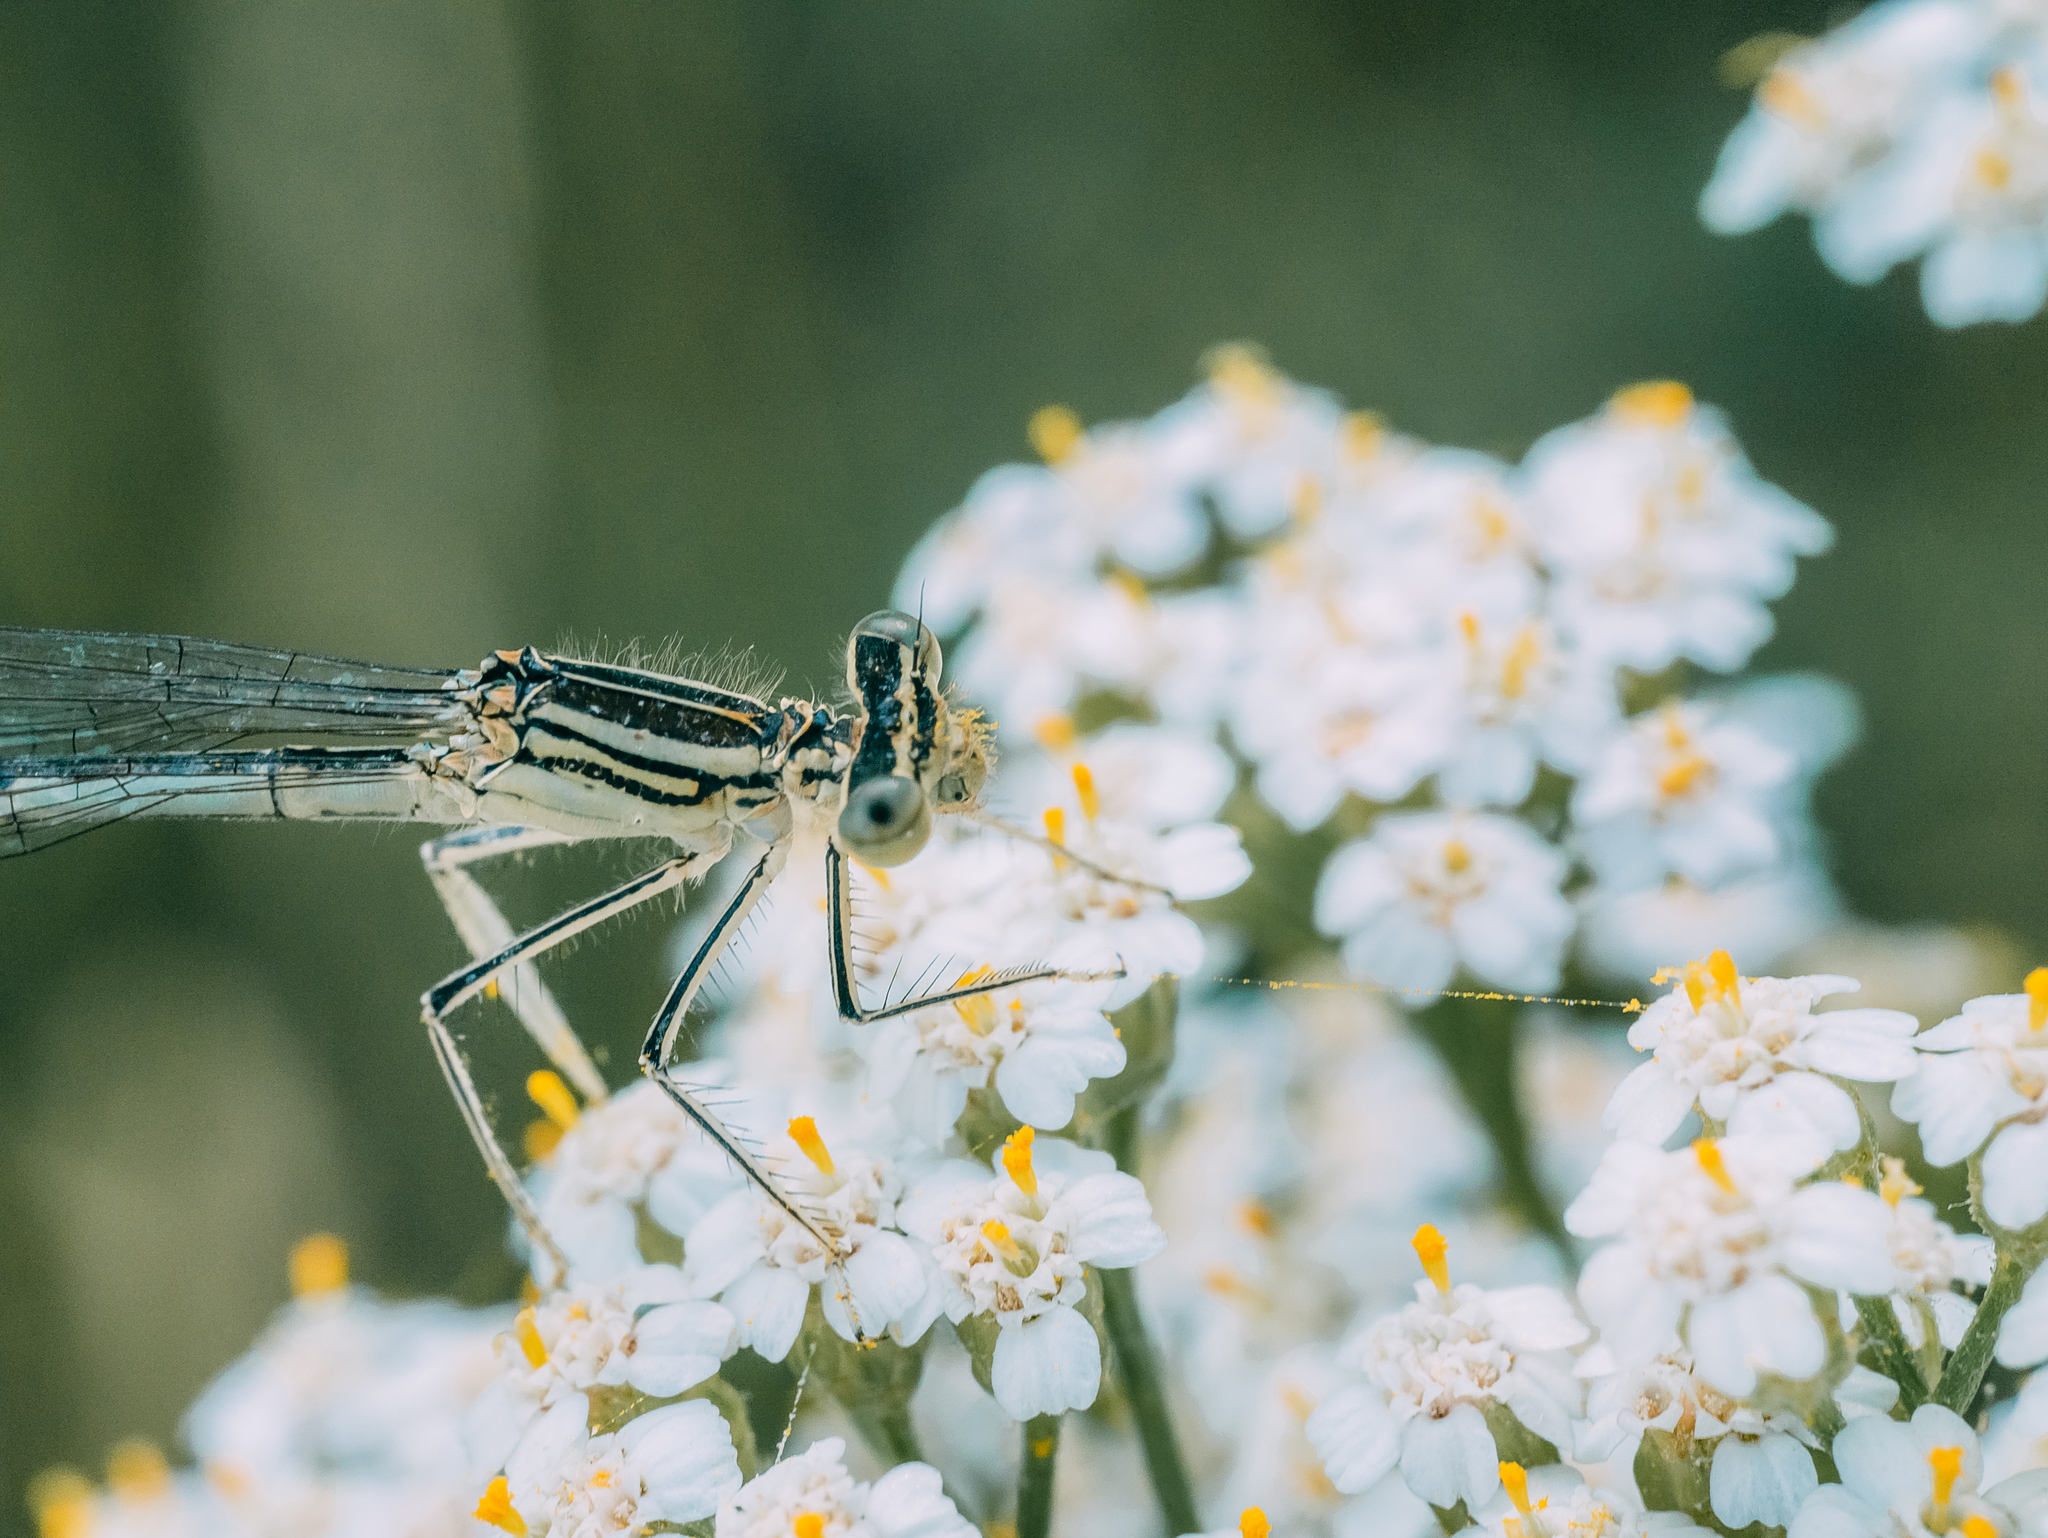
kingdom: Animalia
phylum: Arthropoda
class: Insecta
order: Odonata
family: Platycnemididae
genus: Platycnemis
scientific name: Platycnemis pennipes
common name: White-legged damselfly
